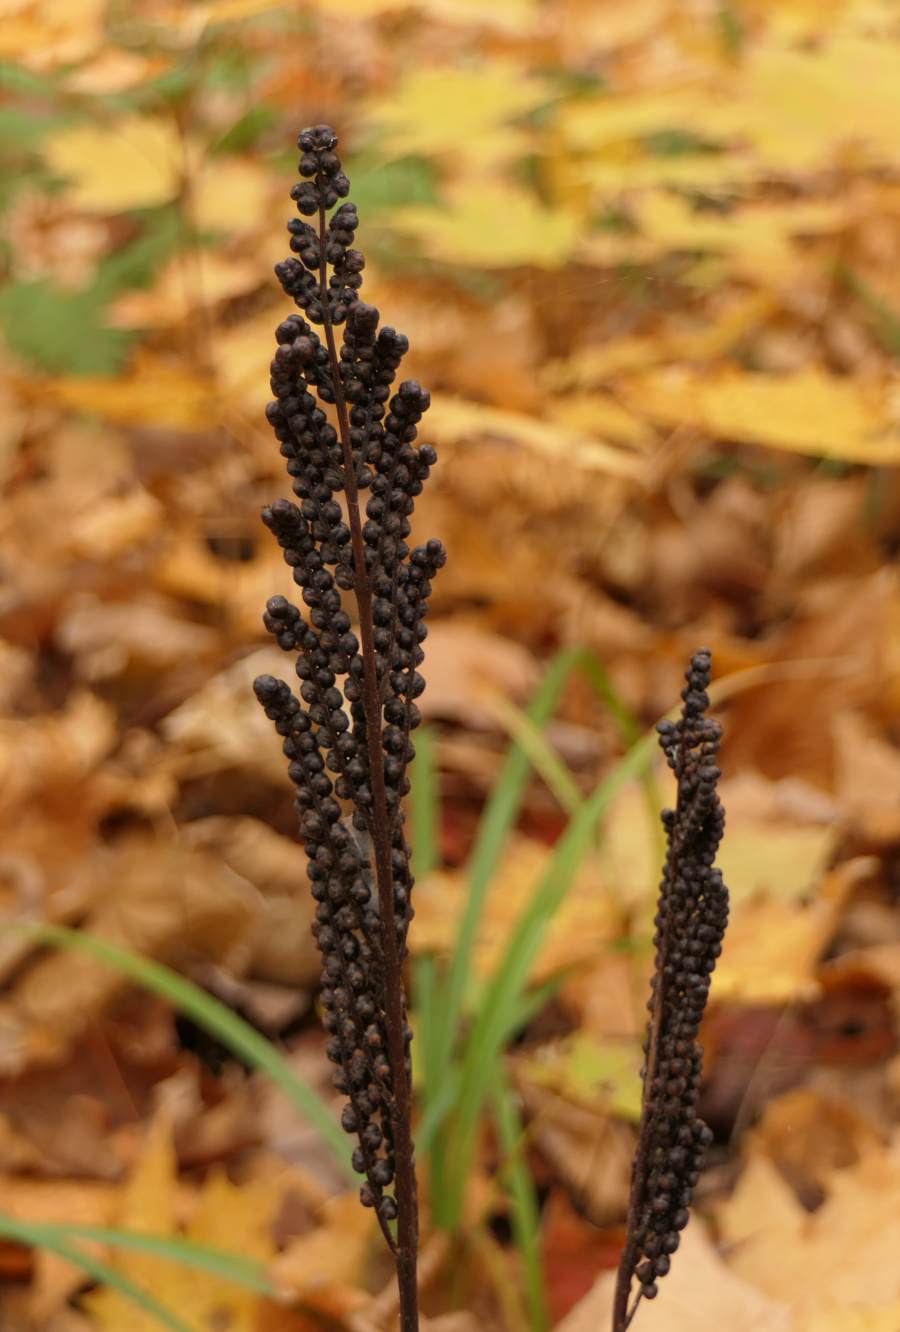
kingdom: Plantae
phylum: Tracheophyta
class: Polypodiopsida
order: Polypodiales
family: Onocleaceae
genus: Onoclea
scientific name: Onoclea sensibilis
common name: Sensitive fern
